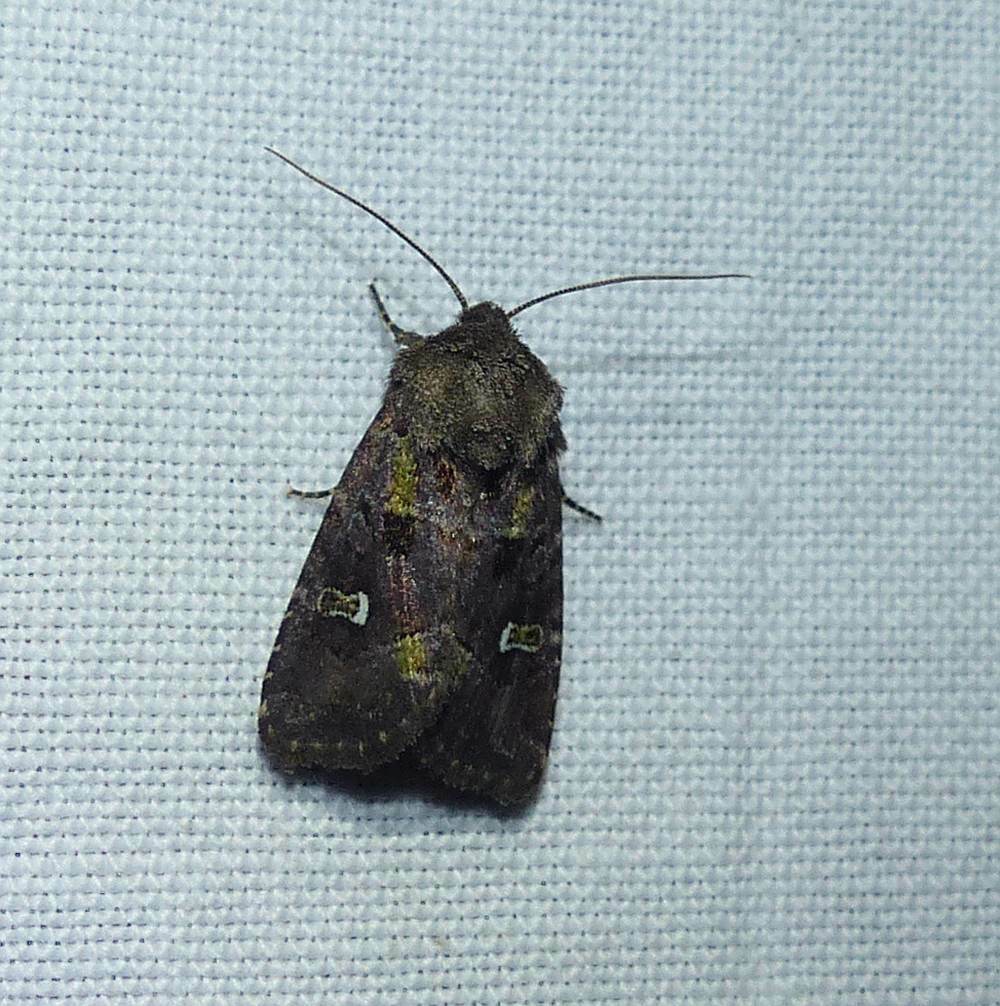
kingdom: Animalia
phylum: Arthropoda
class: Insecta
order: Lepidoptera
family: Noctuidae
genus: Lacinipolia
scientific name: Lacinipolia renigera
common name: Kidney-spotted minor
